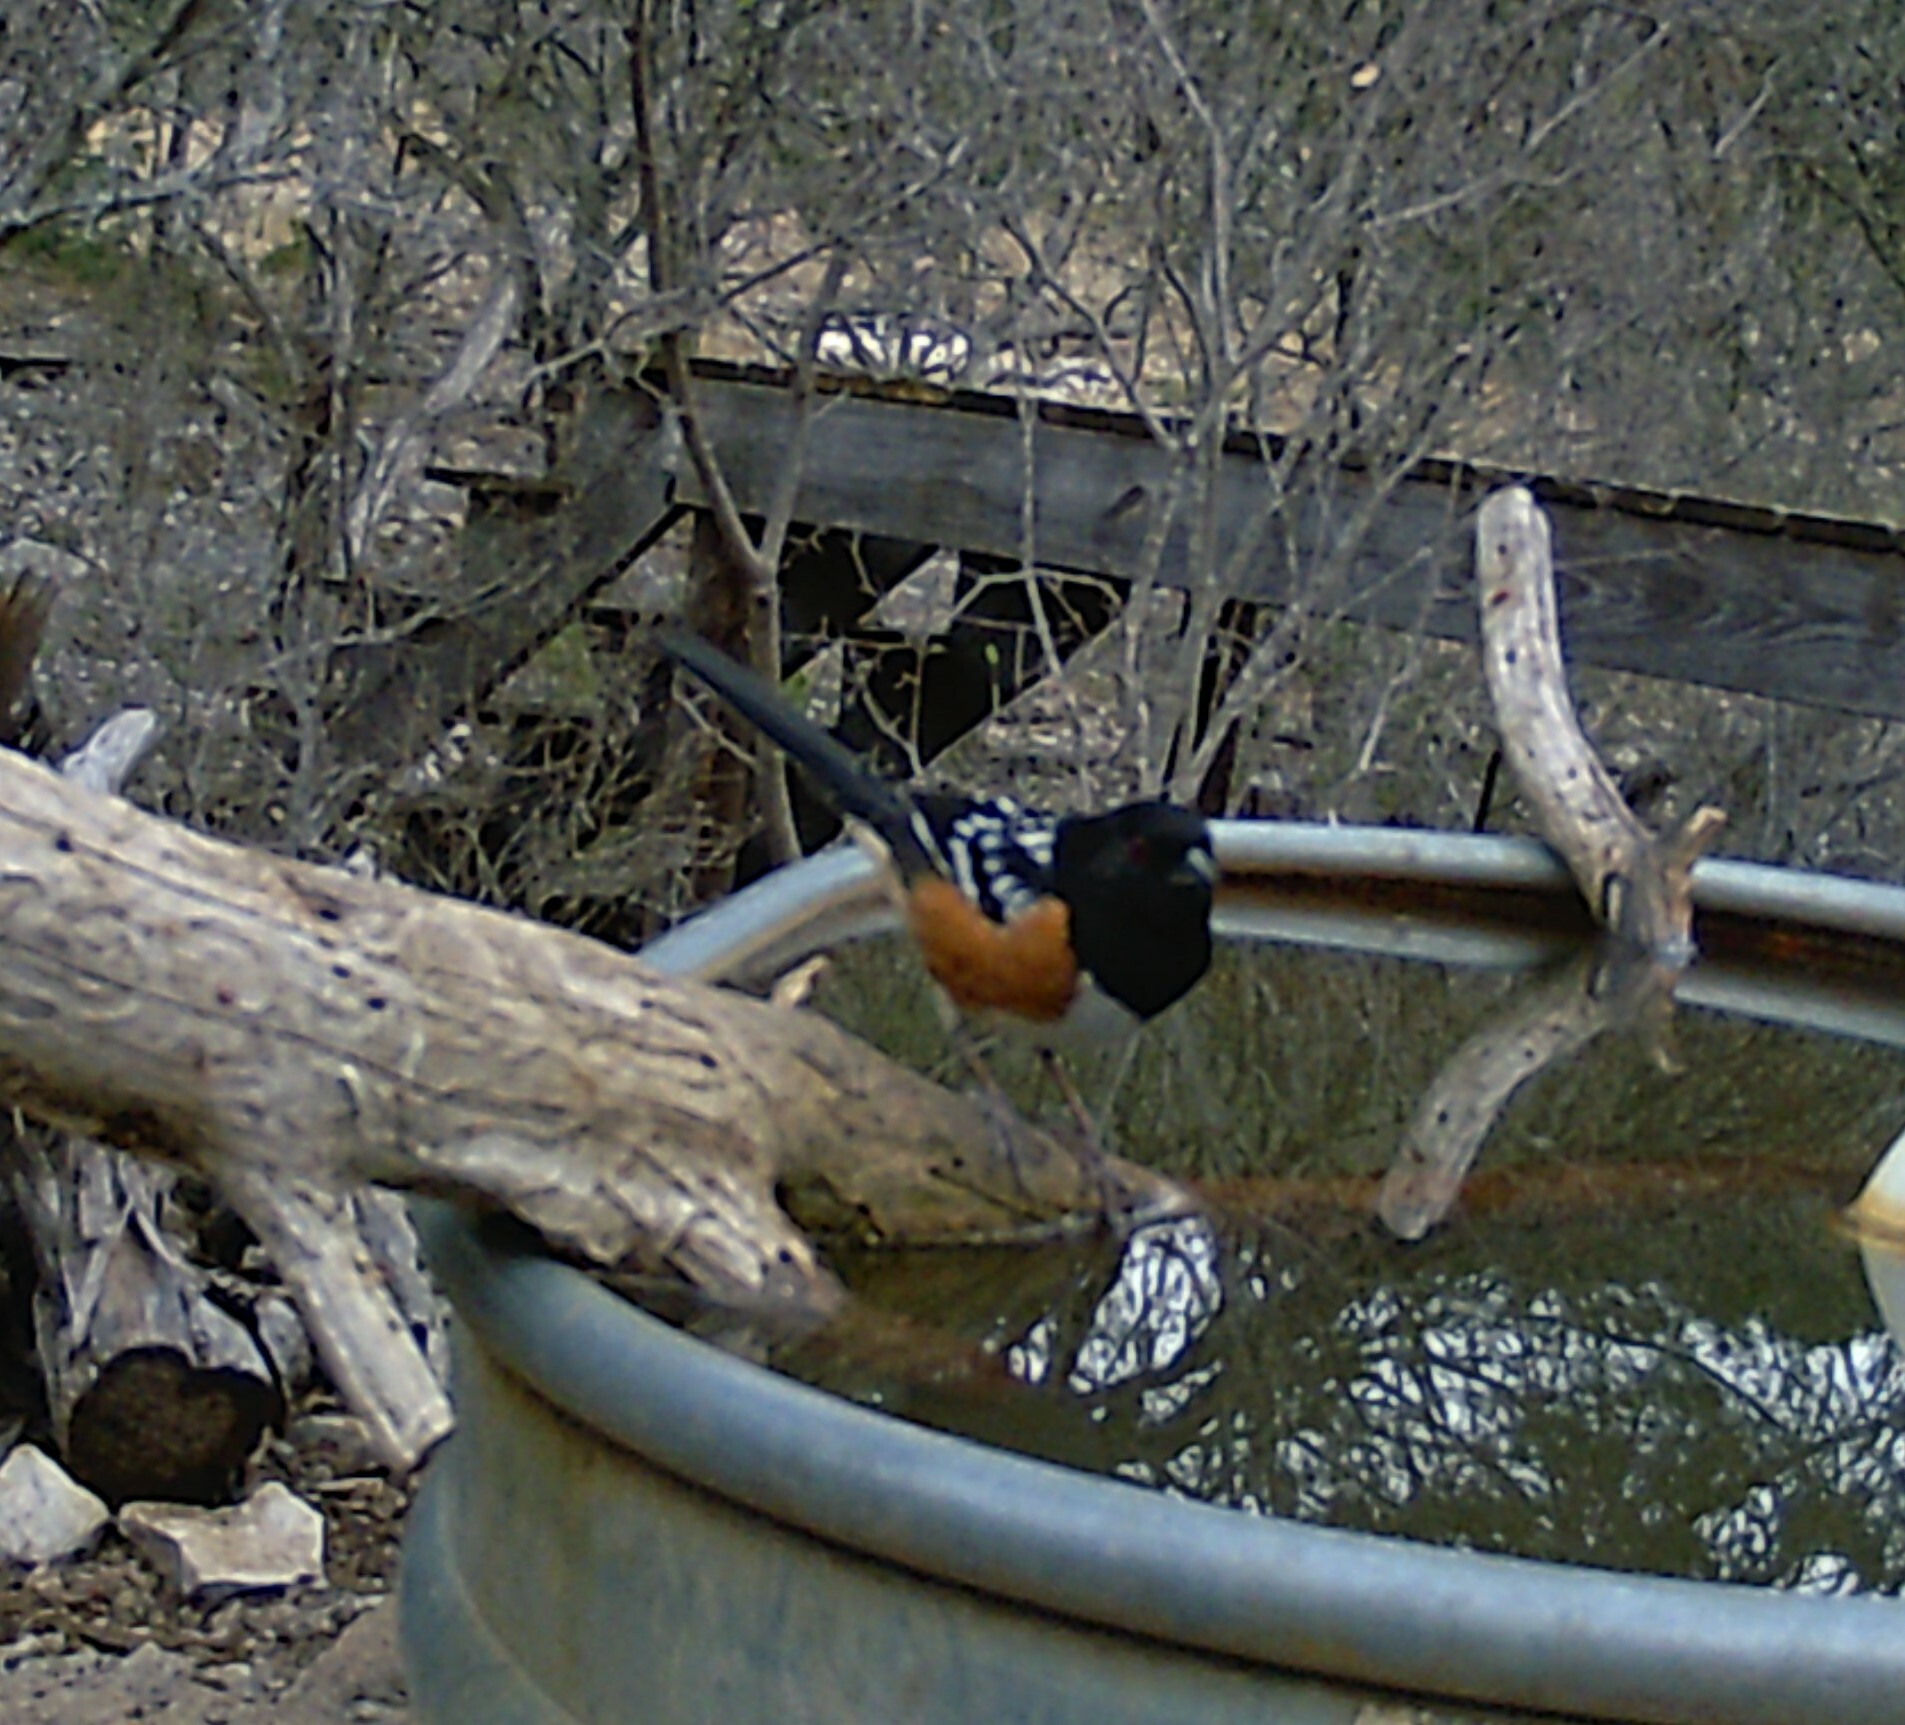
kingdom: Animalia
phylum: Chordata
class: Aves
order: Passeriformes
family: Passerellidae
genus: Pipilo
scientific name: Pipilo maculatus
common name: Spotted towhee
